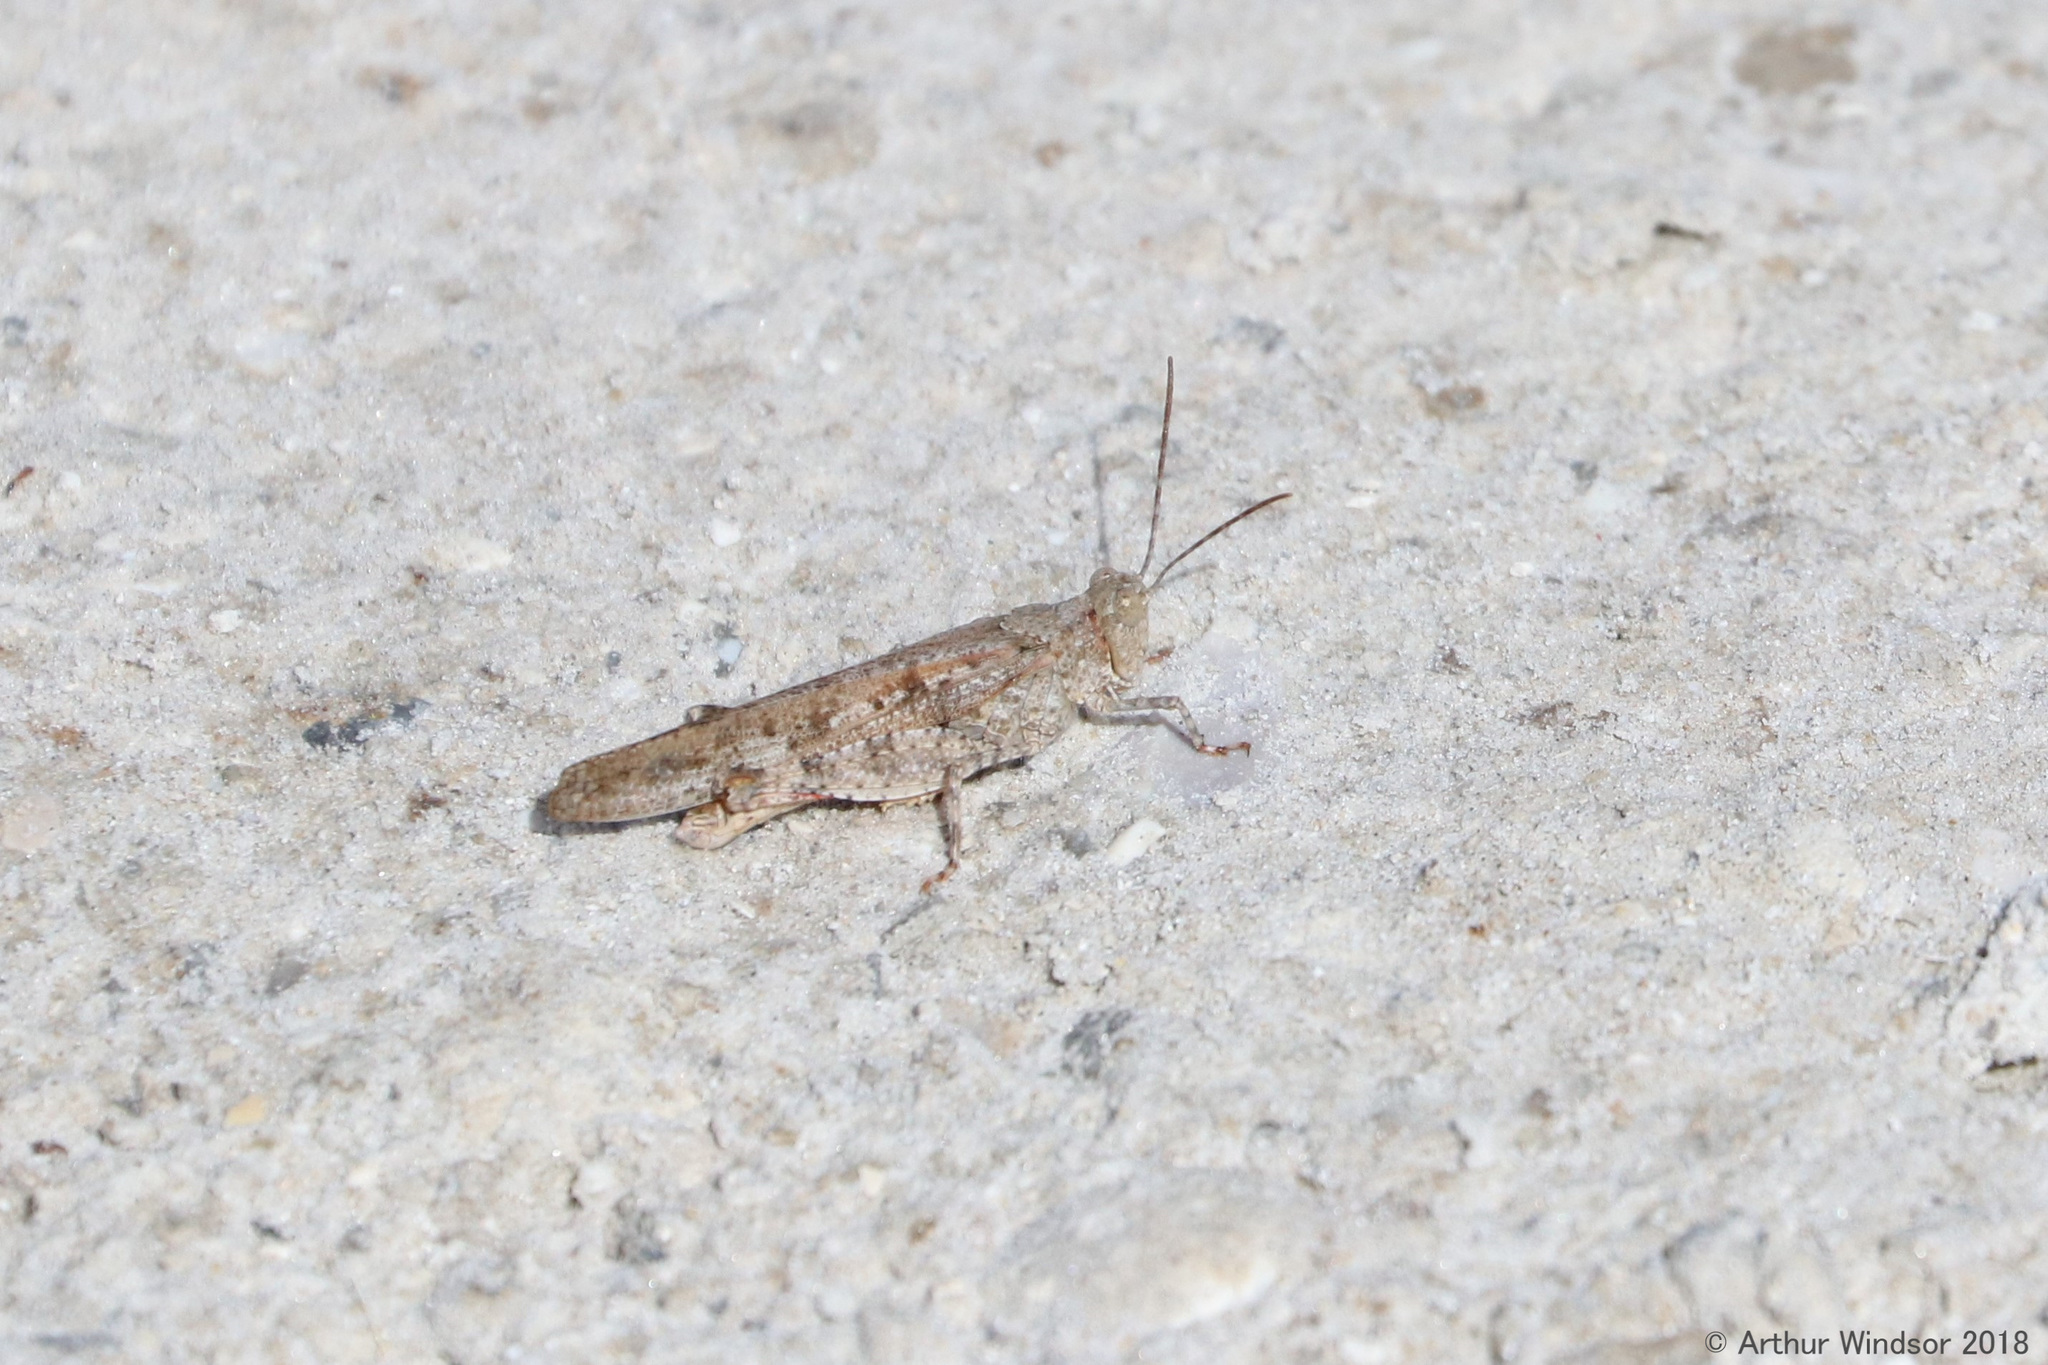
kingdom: Animalia
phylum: Arthropoda
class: Insecta
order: Orthoptera
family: Acrididae
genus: Trimerotropis
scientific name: Trimerotropis maritima
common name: Seaside locust
